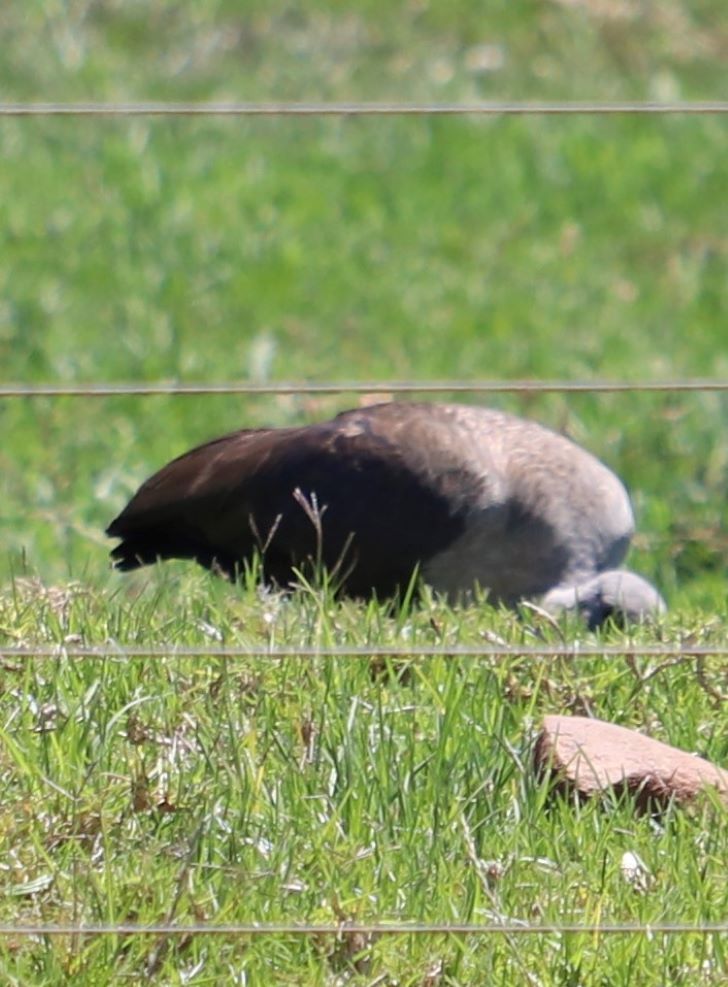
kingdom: Animalia
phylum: Chordata
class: Aves
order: Pelecaniformes
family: Threskiornithidae
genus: Bostrychia
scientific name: Bostrychia hagedash
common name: Hadada ibis
